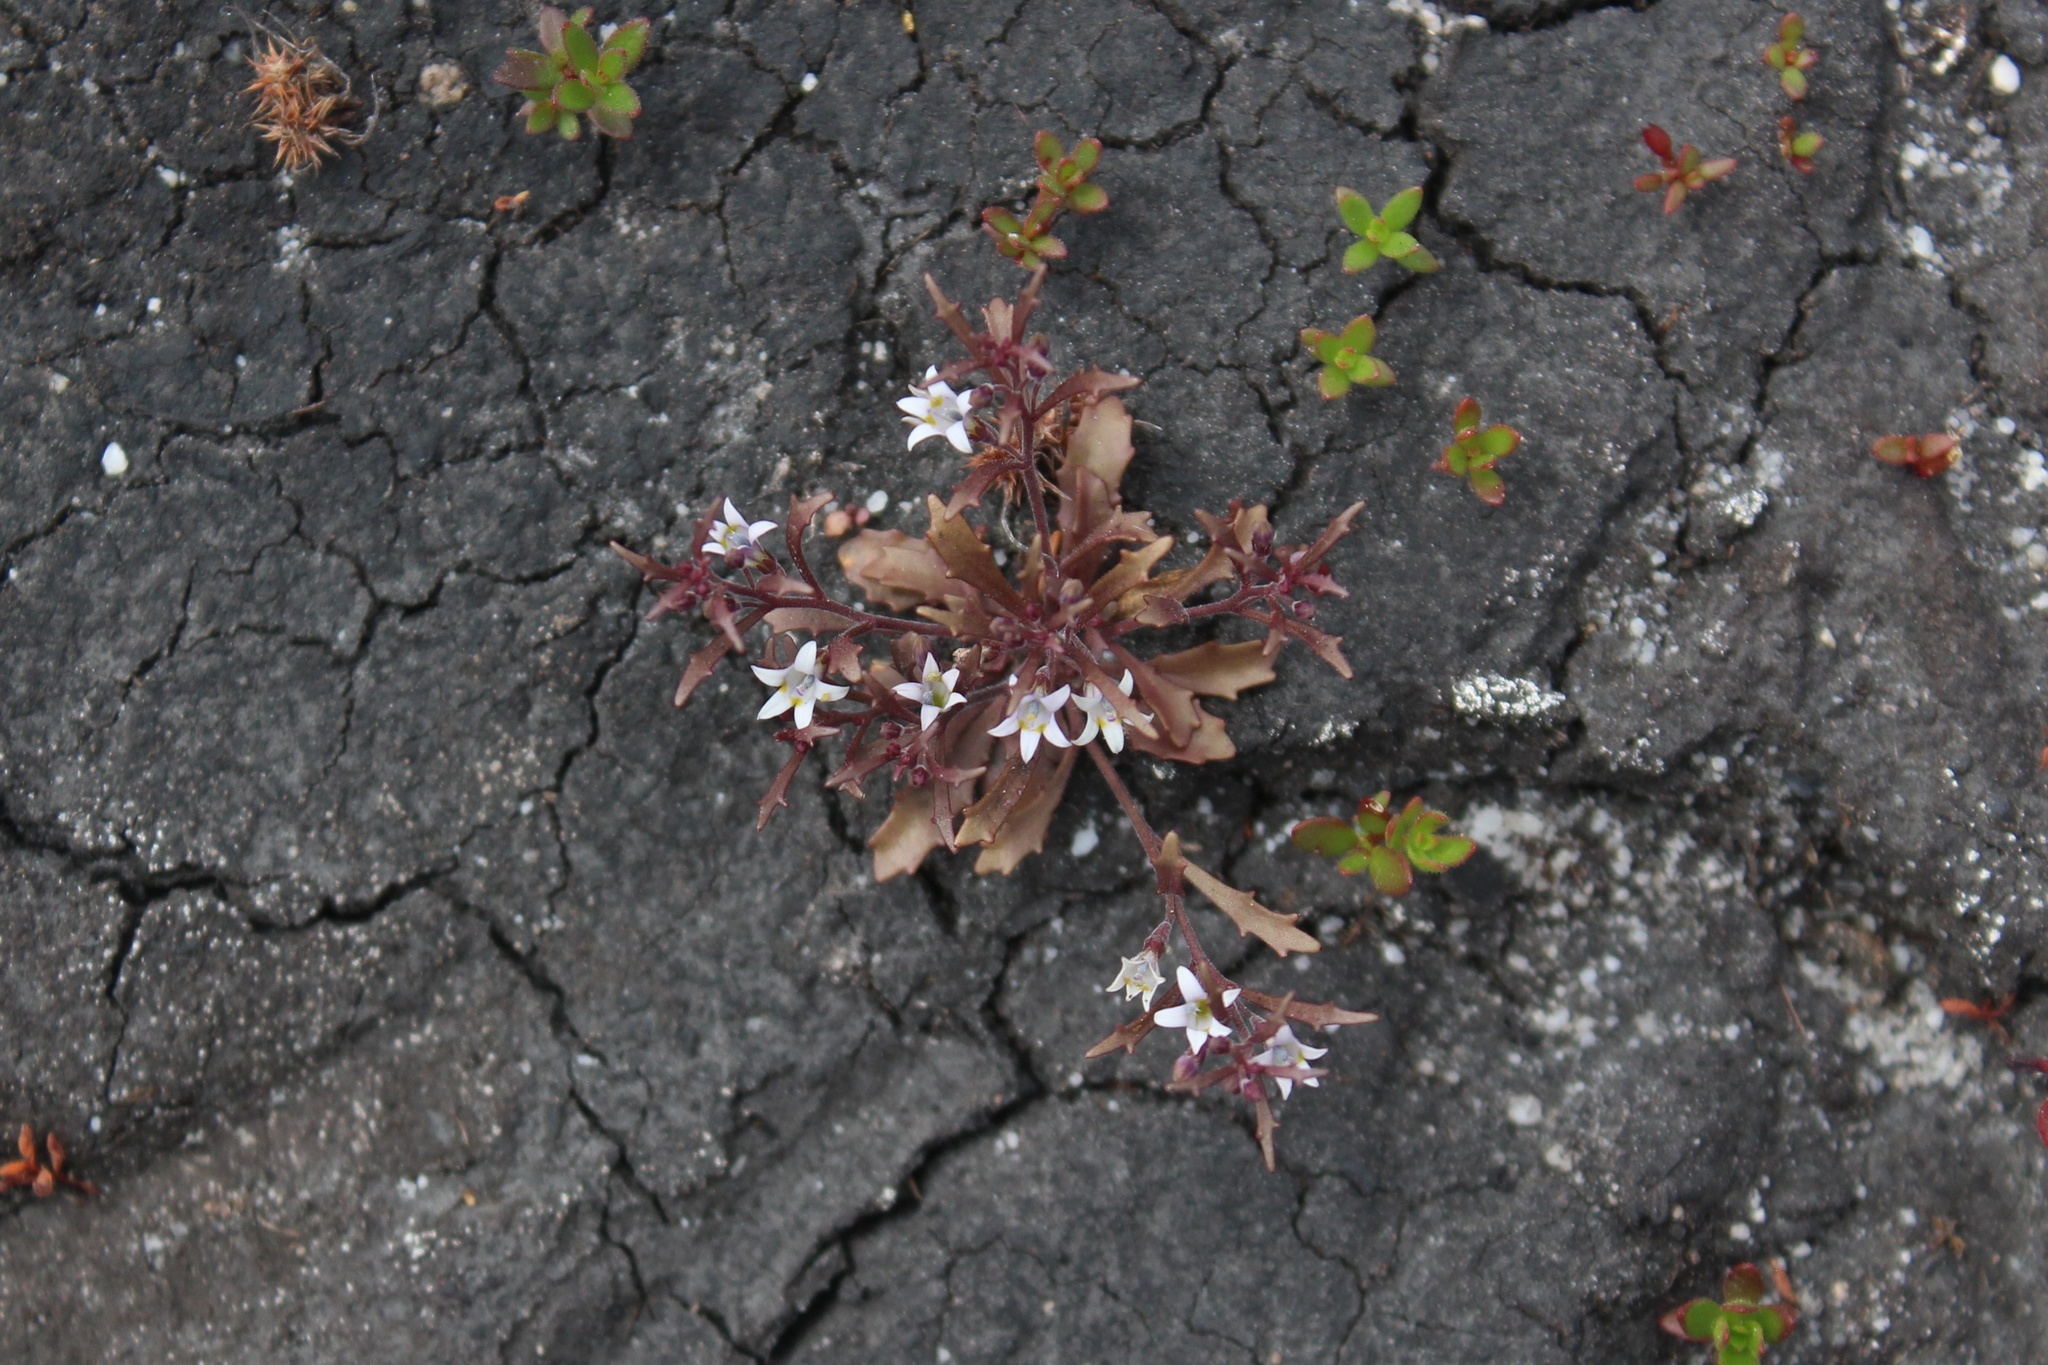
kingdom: Plantae
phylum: Tracheophyta
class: Magnoliopsida
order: Asterales
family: Campanulaceae
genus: Wimmerella
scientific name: Wimmerella secunda
